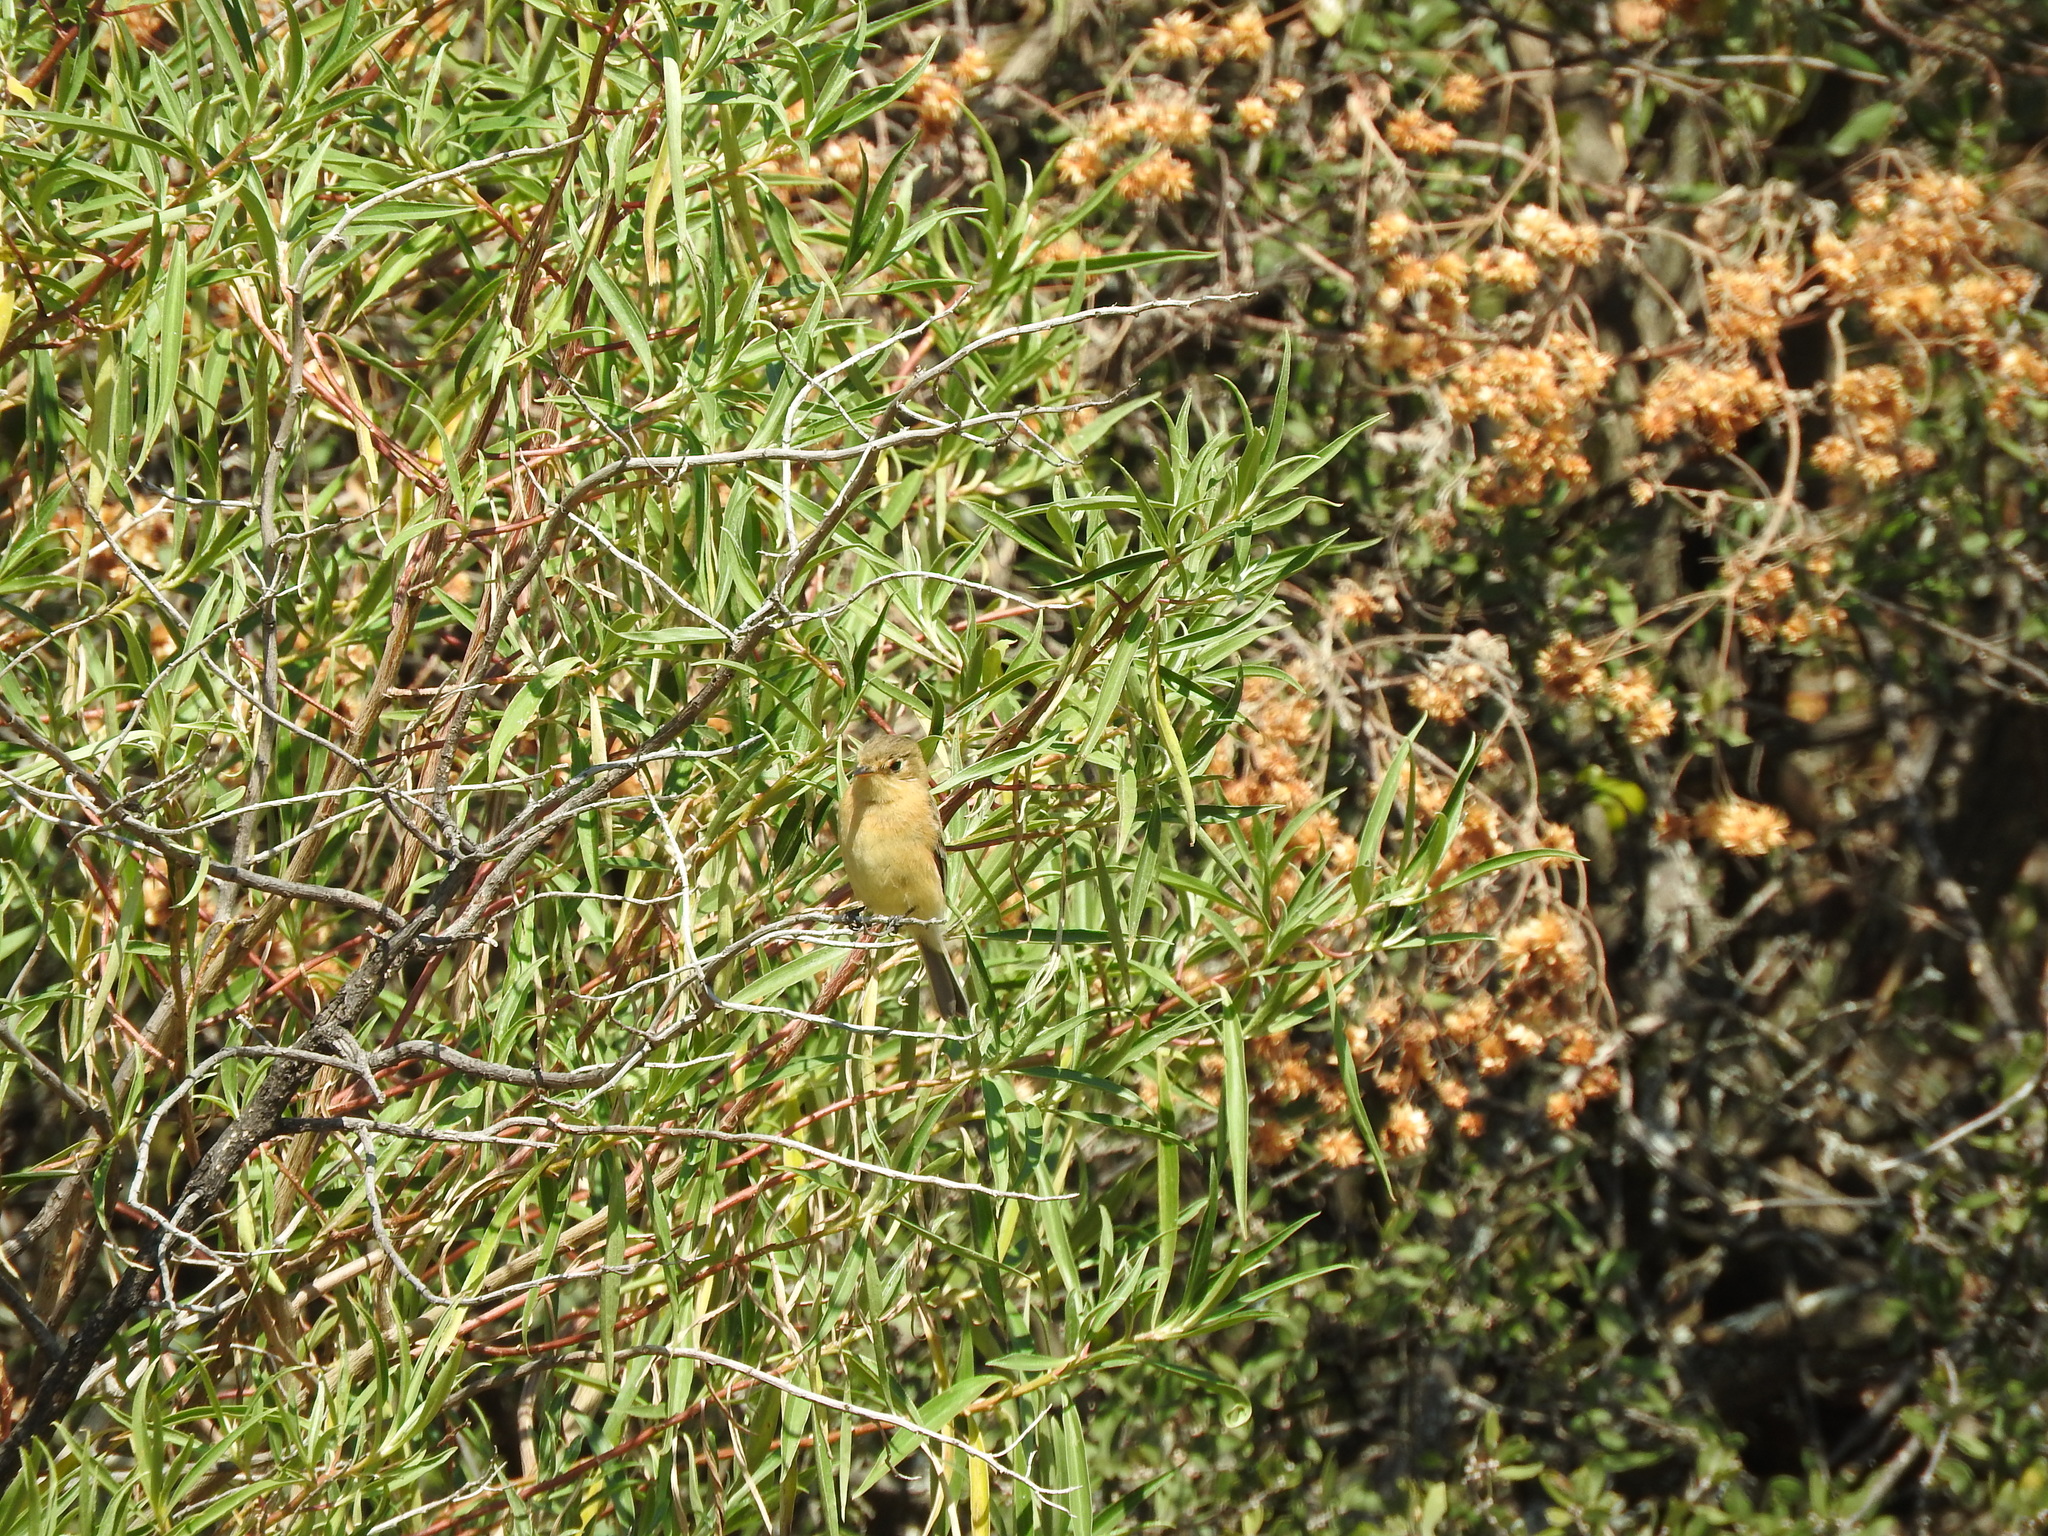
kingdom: Animalia
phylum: Chordata
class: Aves
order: Passeriformes
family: Tyrannidae
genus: Empidonax
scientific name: Empidonax fulvifrons
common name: Buff-breasted flycatcher
